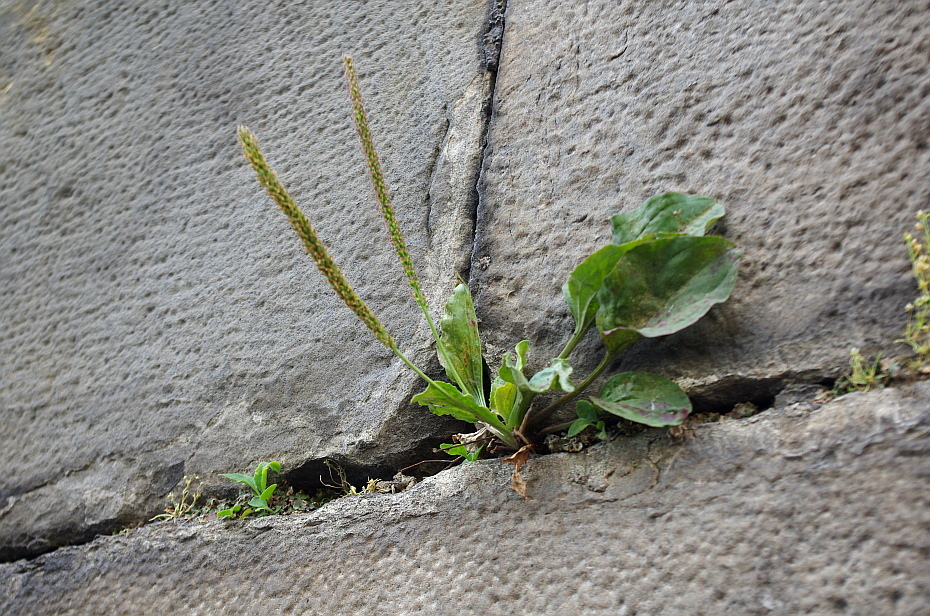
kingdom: Plantae
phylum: Tracheophyta
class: Magnoliopsida
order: Lamiales
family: Plantaginaceae
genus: Plantago
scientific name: Plantago major
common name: Common plantain
